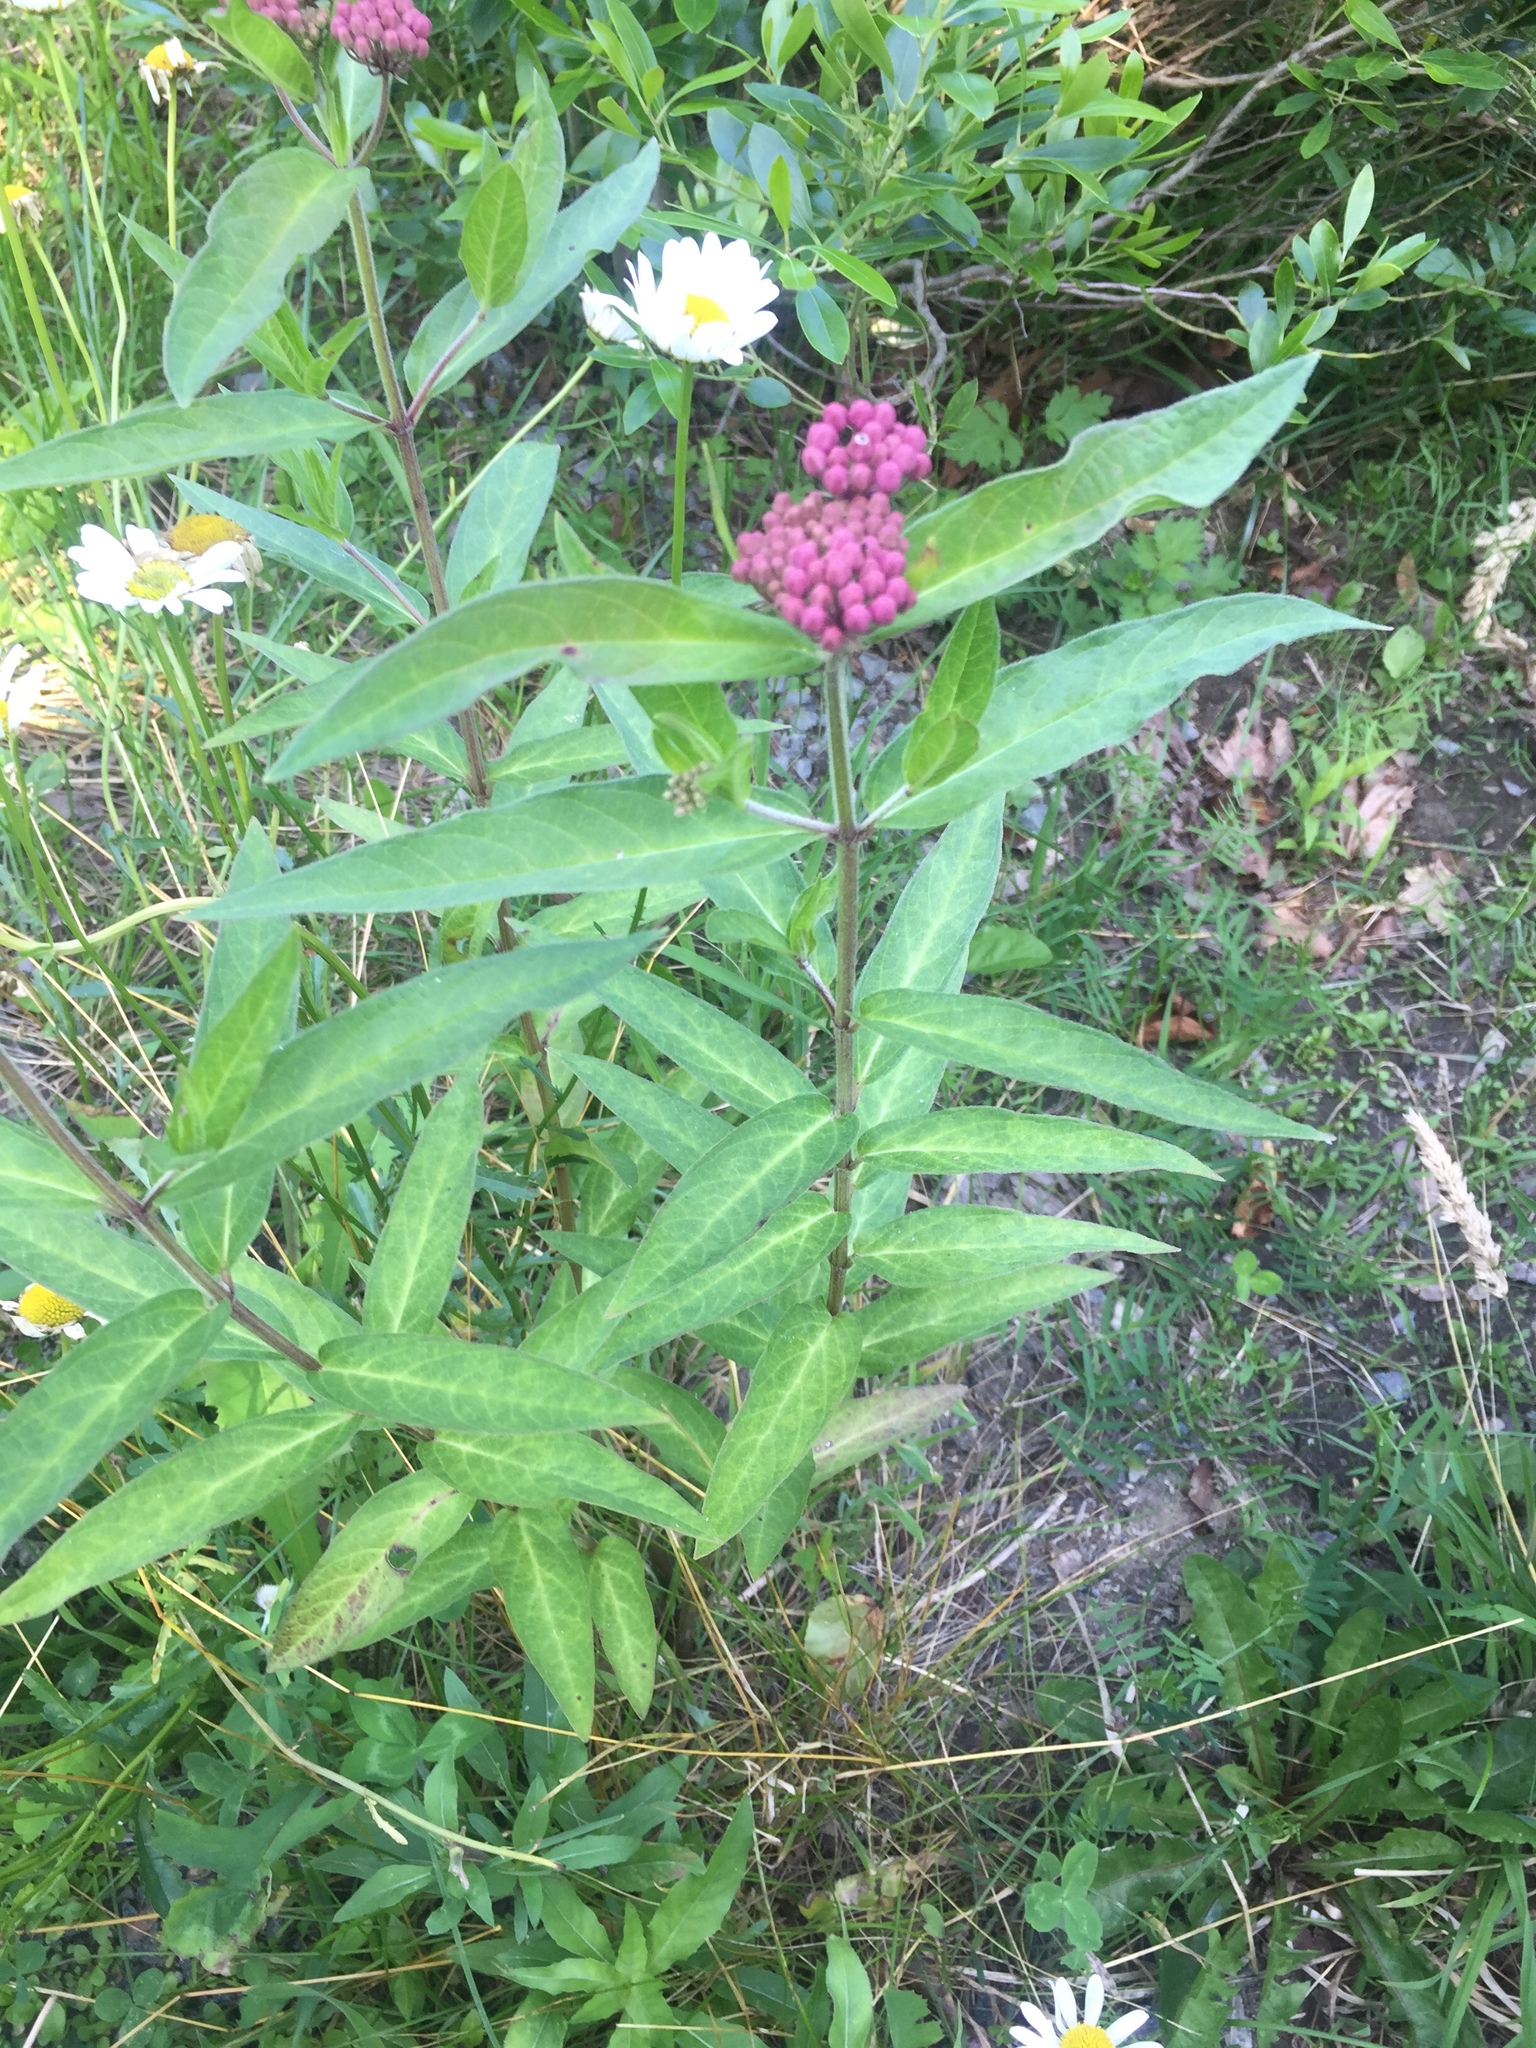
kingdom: Plantae
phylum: Tracheophyta
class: Magnoliopsida
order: Gentianales
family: Apocynaceae
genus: Asclepias
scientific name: Asclepias incarnata
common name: Swamp milkweed
